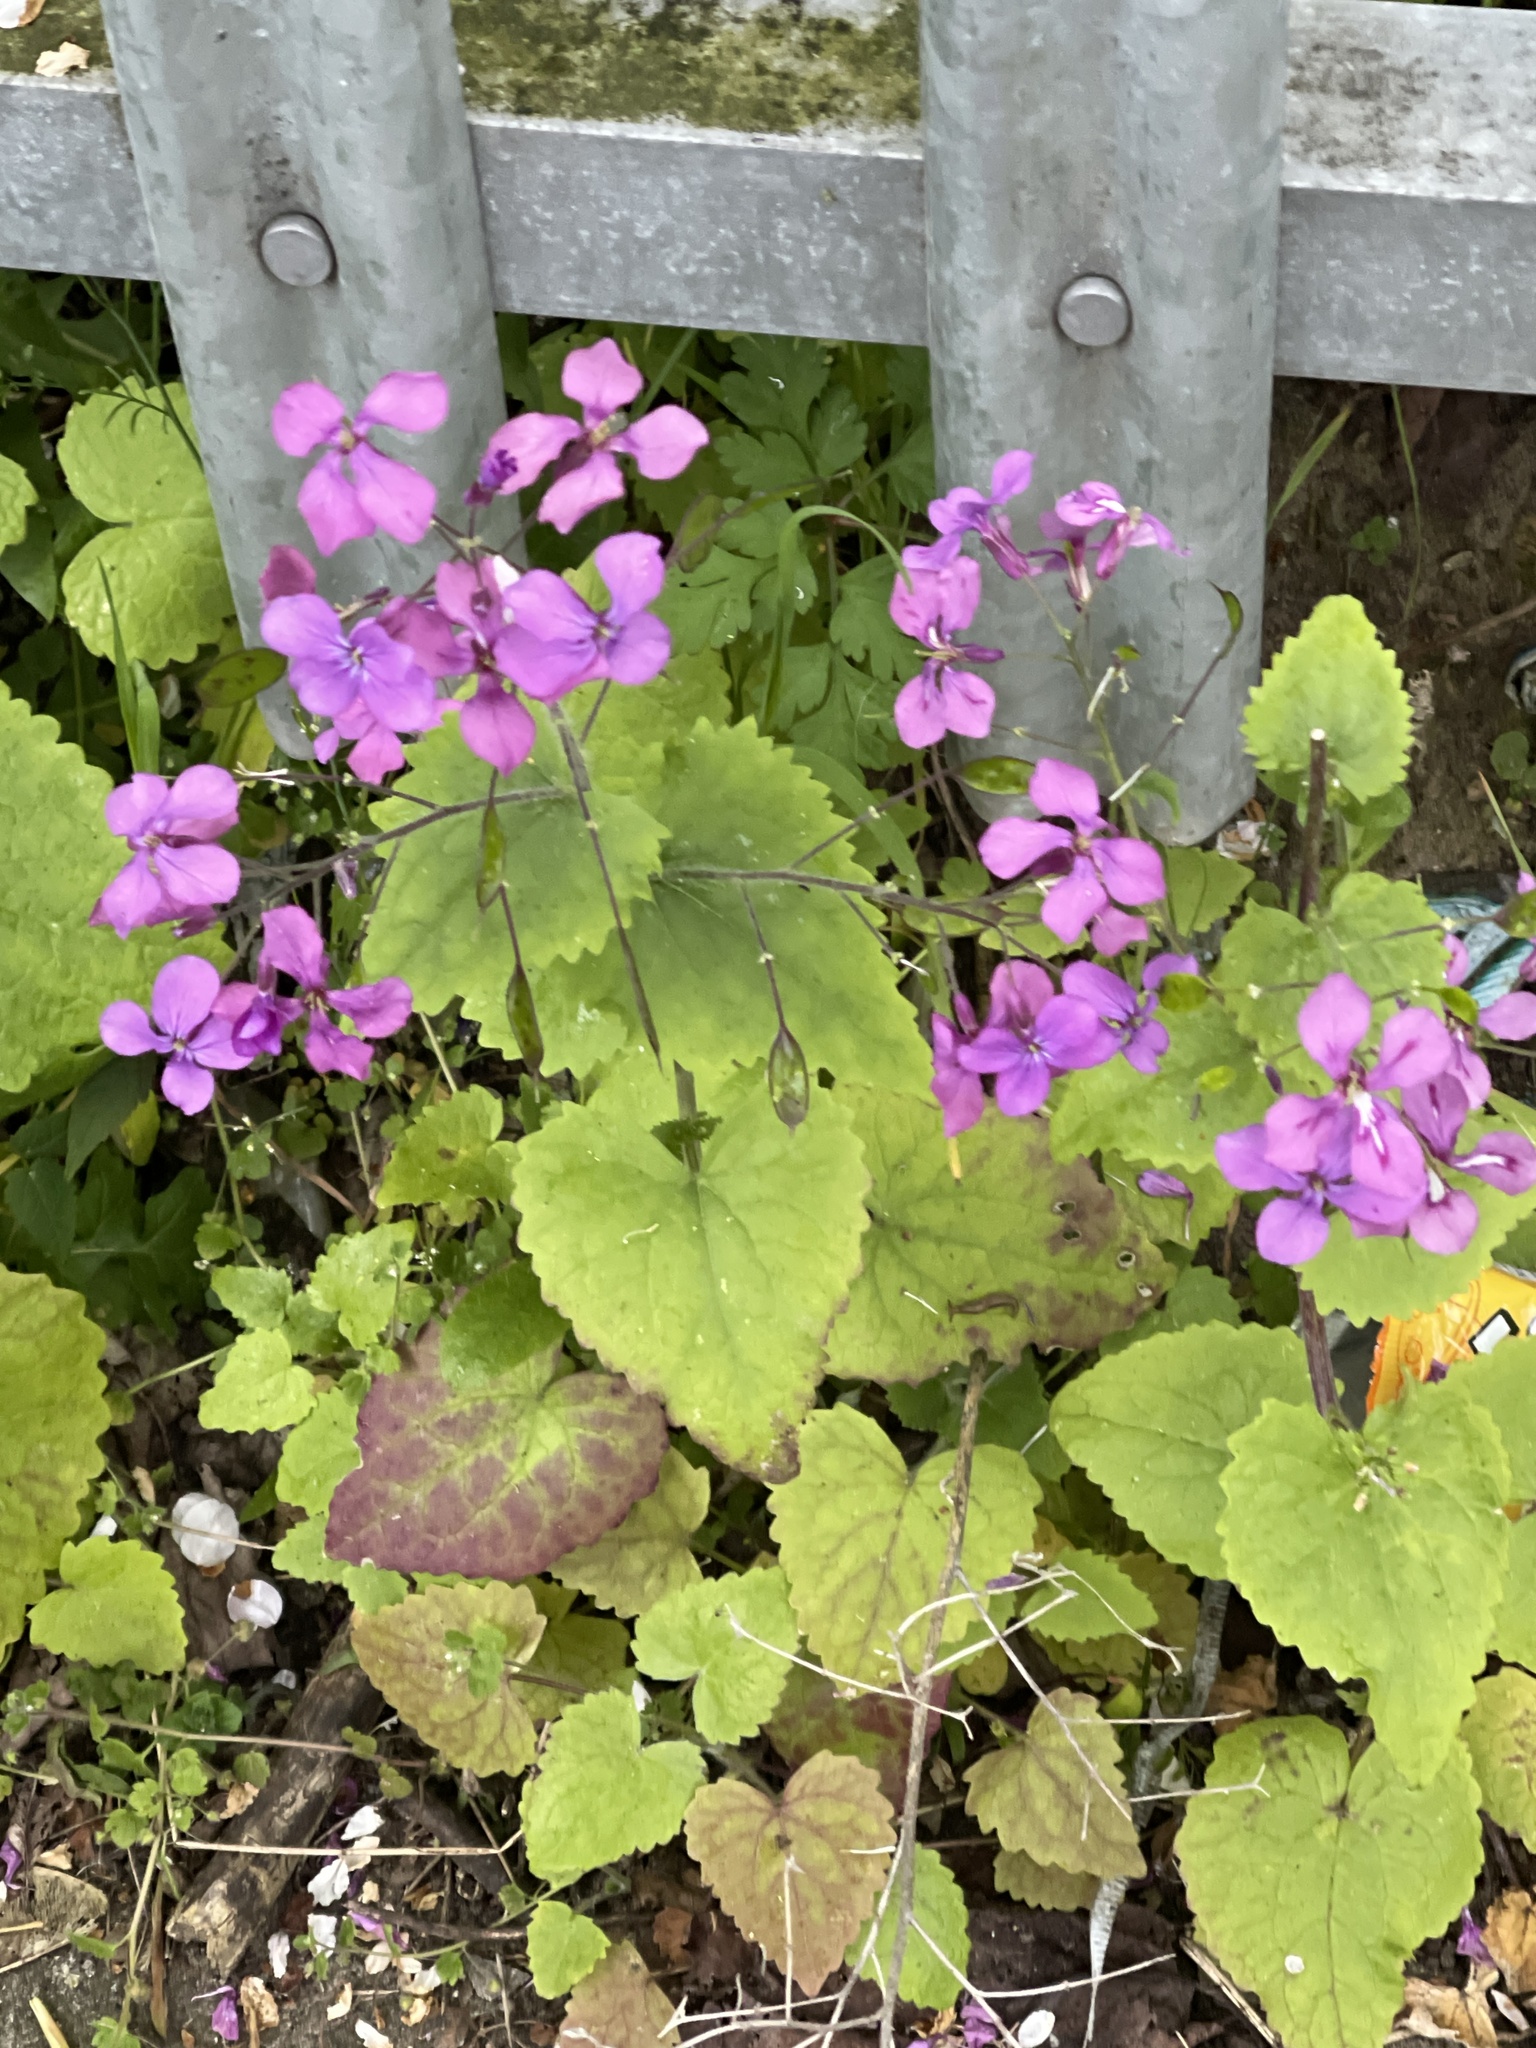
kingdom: Plantae
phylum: Tracheophyta
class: Magnoliopsida
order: Brassicales
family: Brassicaceae
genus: Lunaria
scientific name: Lunaria annua
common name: Honesty
